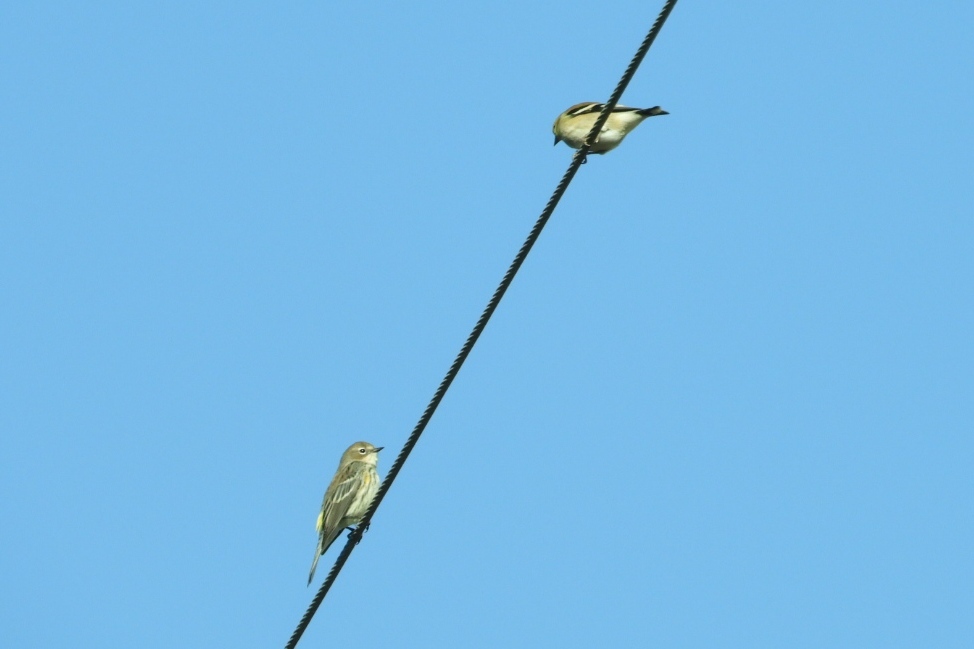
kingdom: Animalia
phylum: Chordata
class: Aves
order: Passeriformes
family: Parulidae
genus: Setophaga
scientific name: Setophaga coronata
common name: Myrtle warbler
